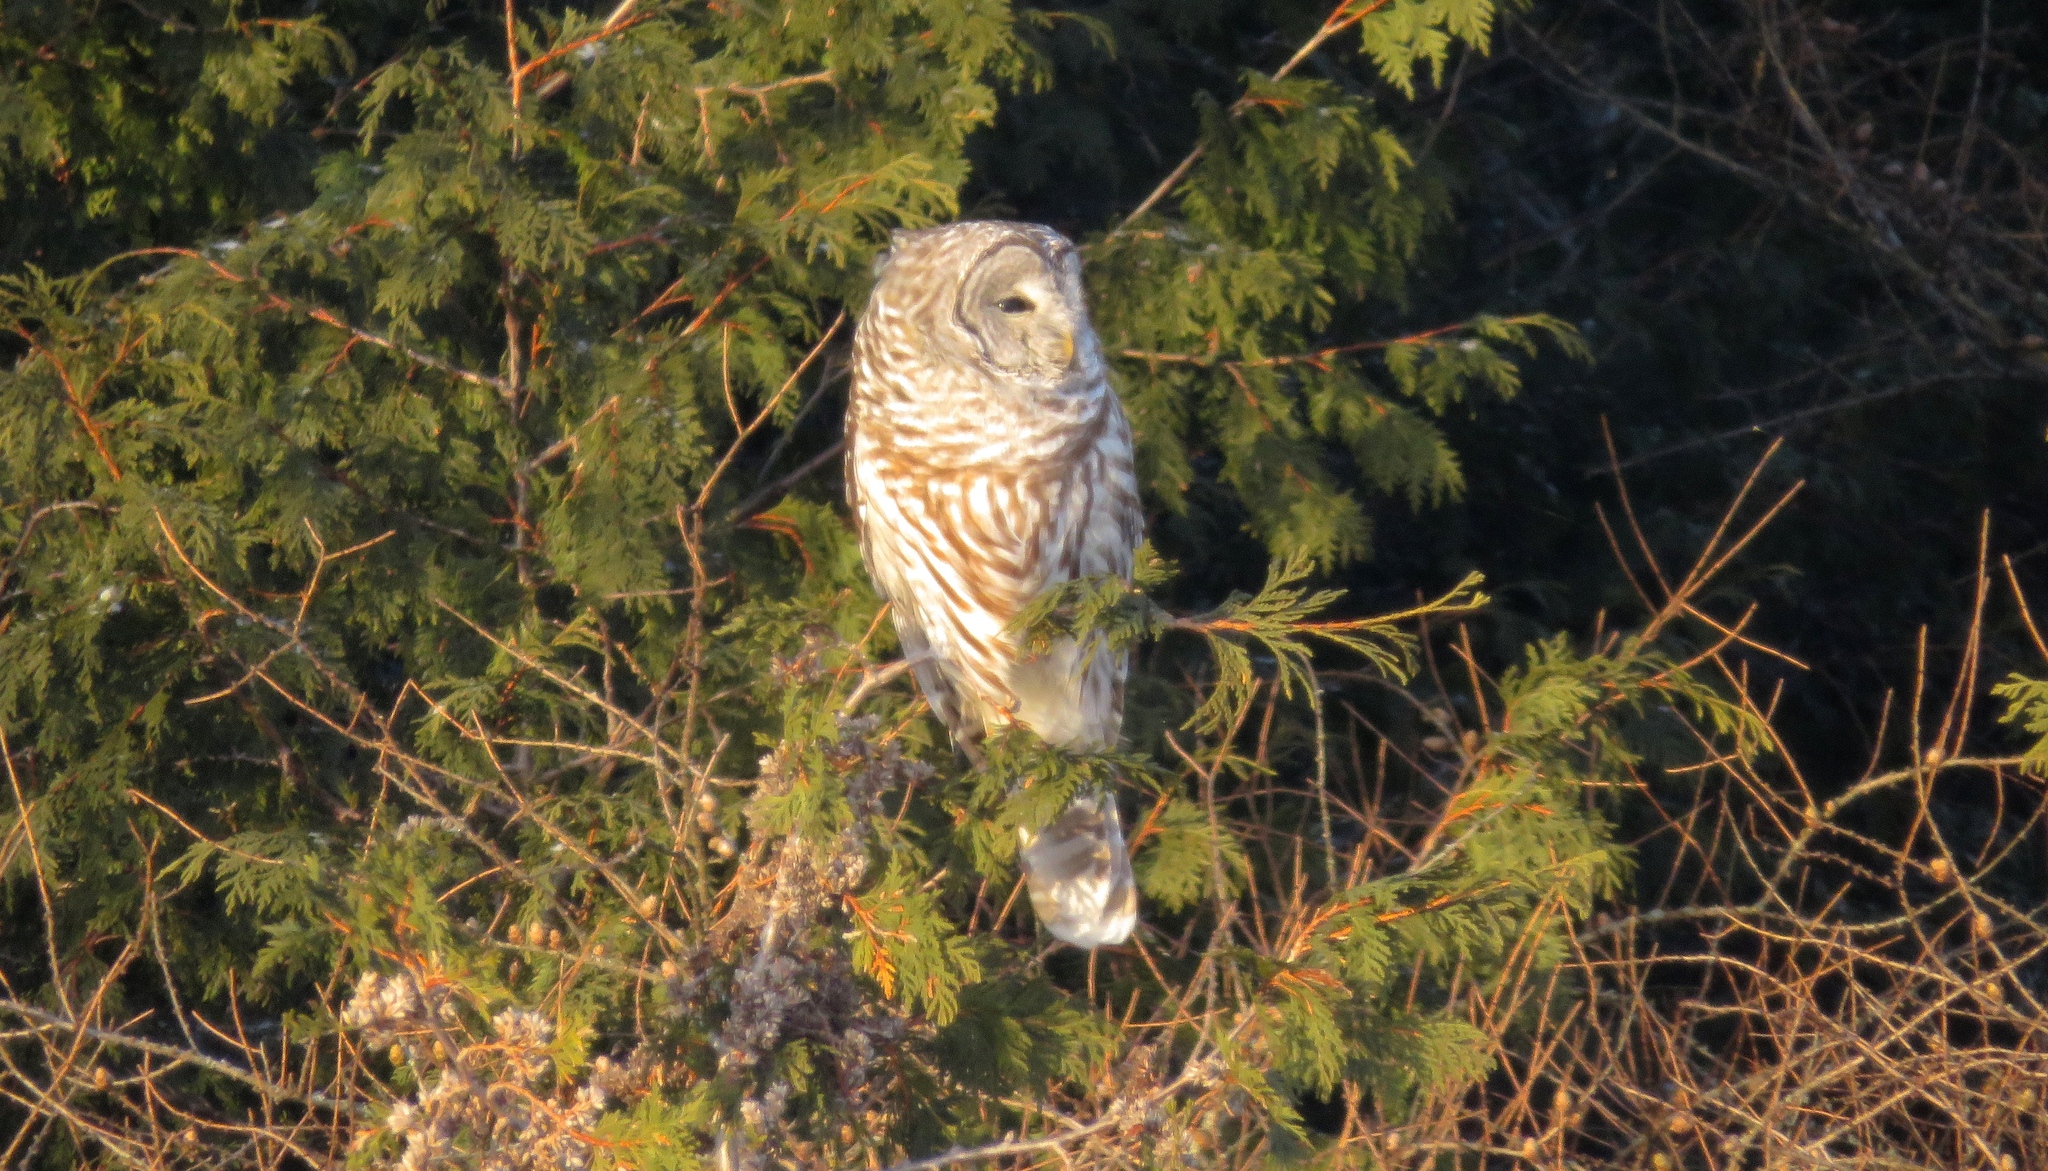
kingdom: Animalia
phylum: Chordata
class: Aves
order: Strigiformes
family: Strigidae
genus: Strix
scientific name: Strix varia
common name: Barred owl
